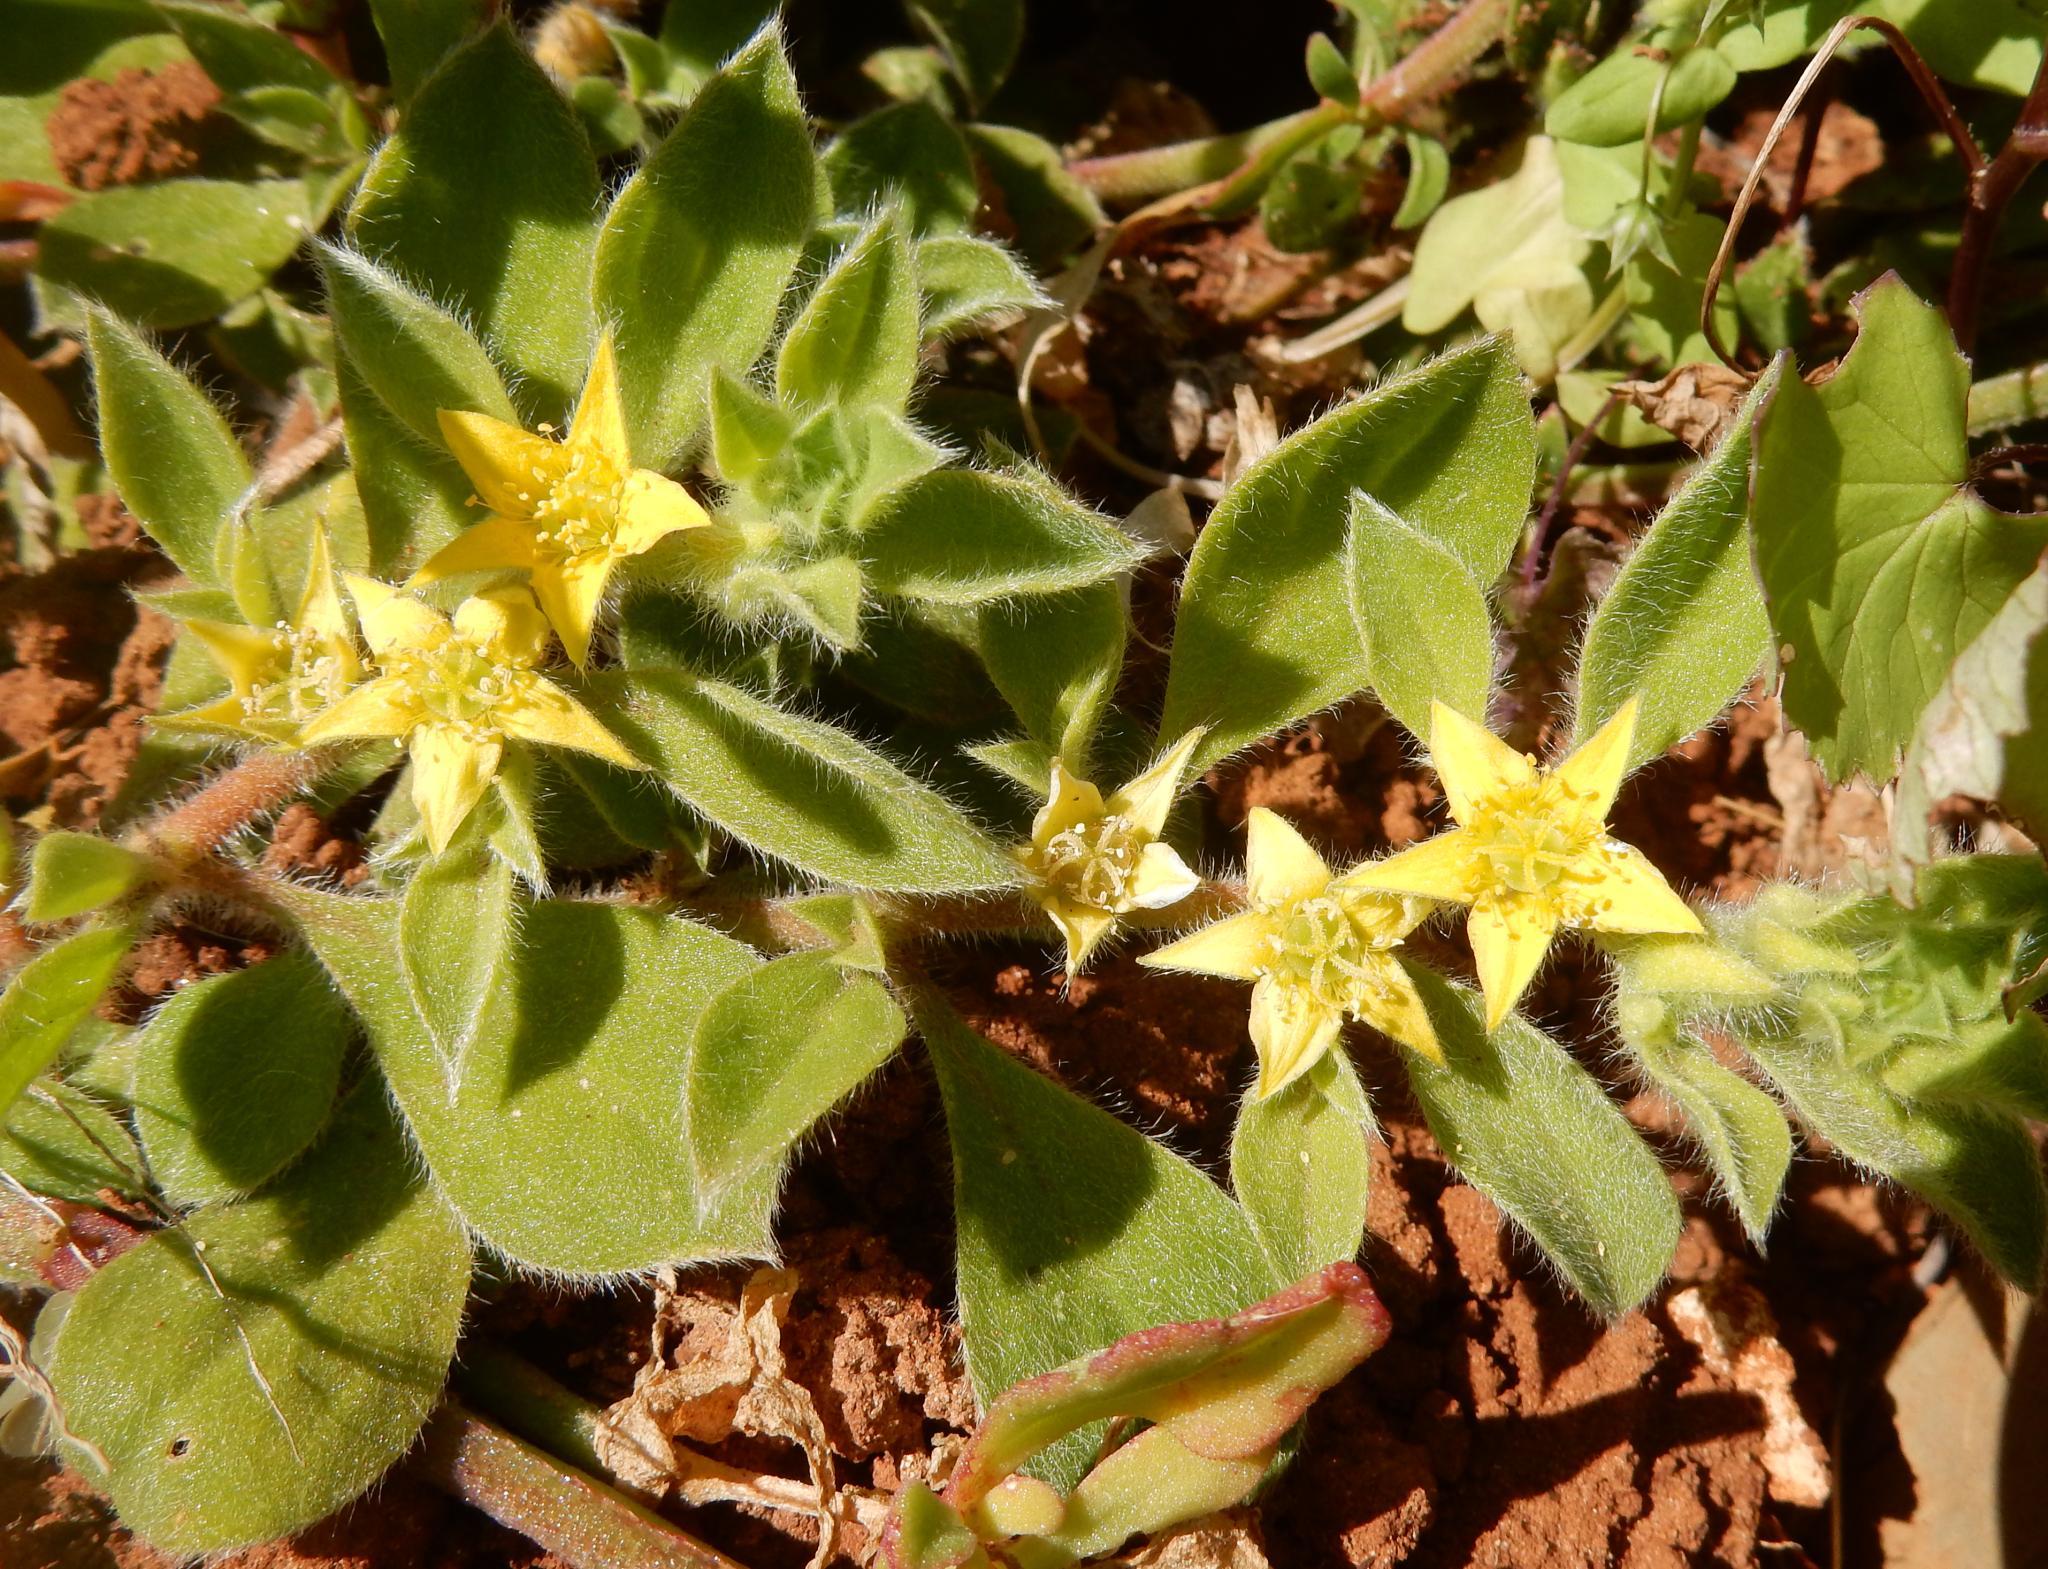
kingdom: Plantae
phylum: Tracheophyta
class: Magnoliopsida
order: Caryophyllales
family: Aizoaceae
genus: Aizoon
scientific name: Aizoon glinoides
